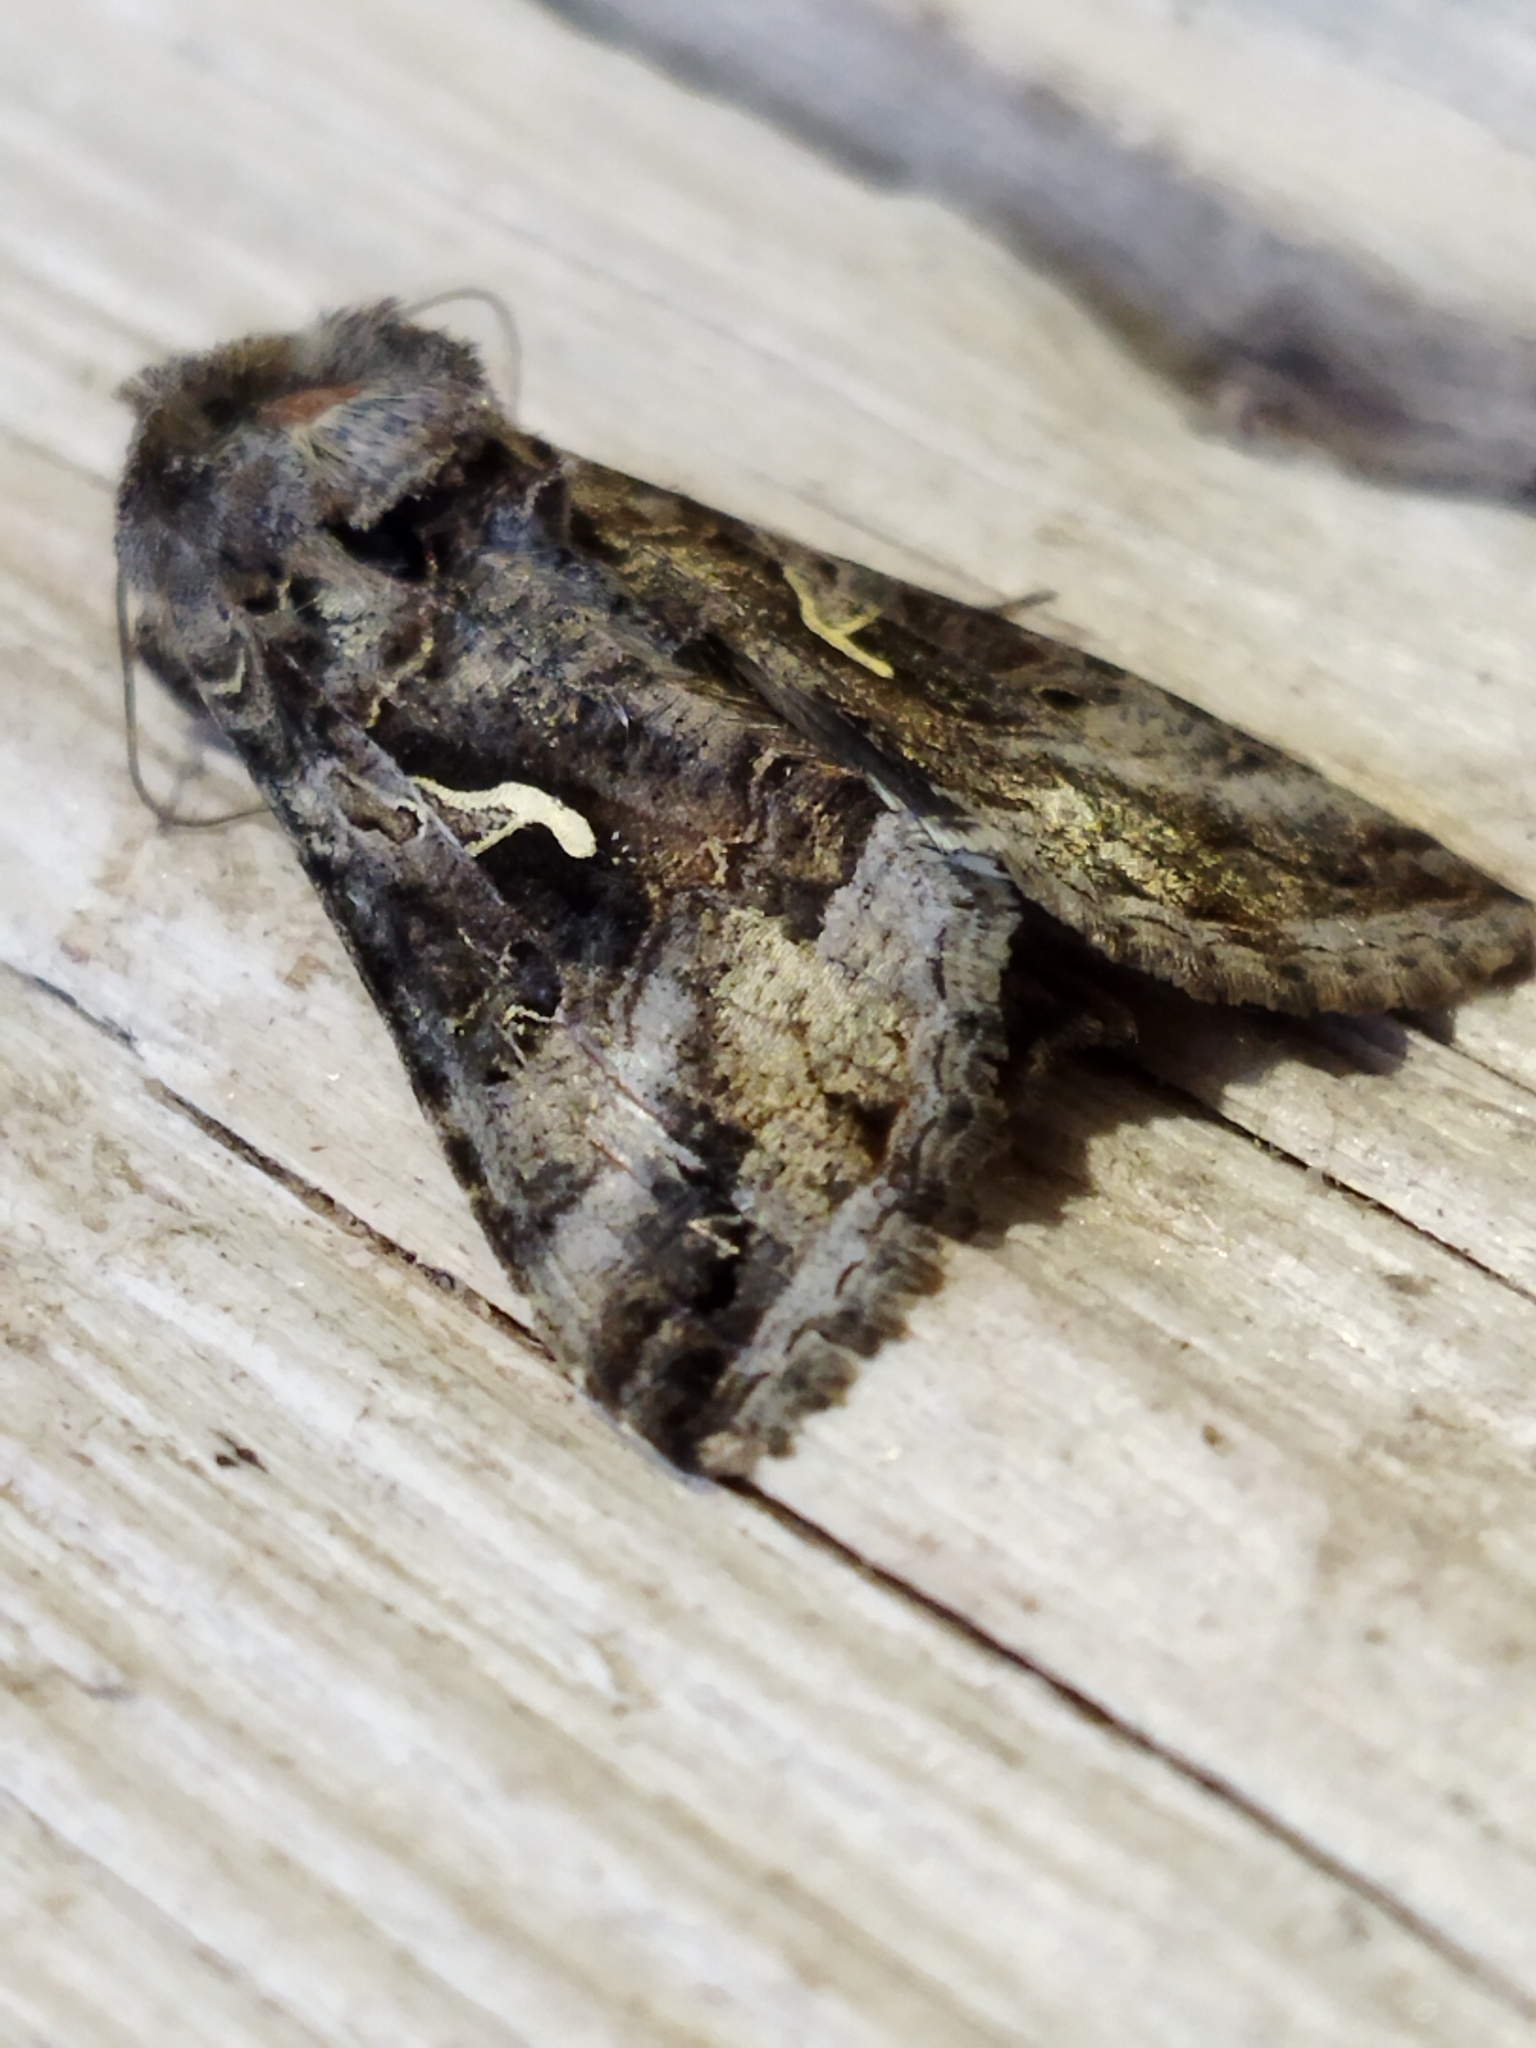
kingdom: Animalia
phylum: Arthropoda
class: Insecta
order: Lepidoptera
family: Noctuidae
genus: Autographa
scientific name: Autographa gamma
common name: Silver y
